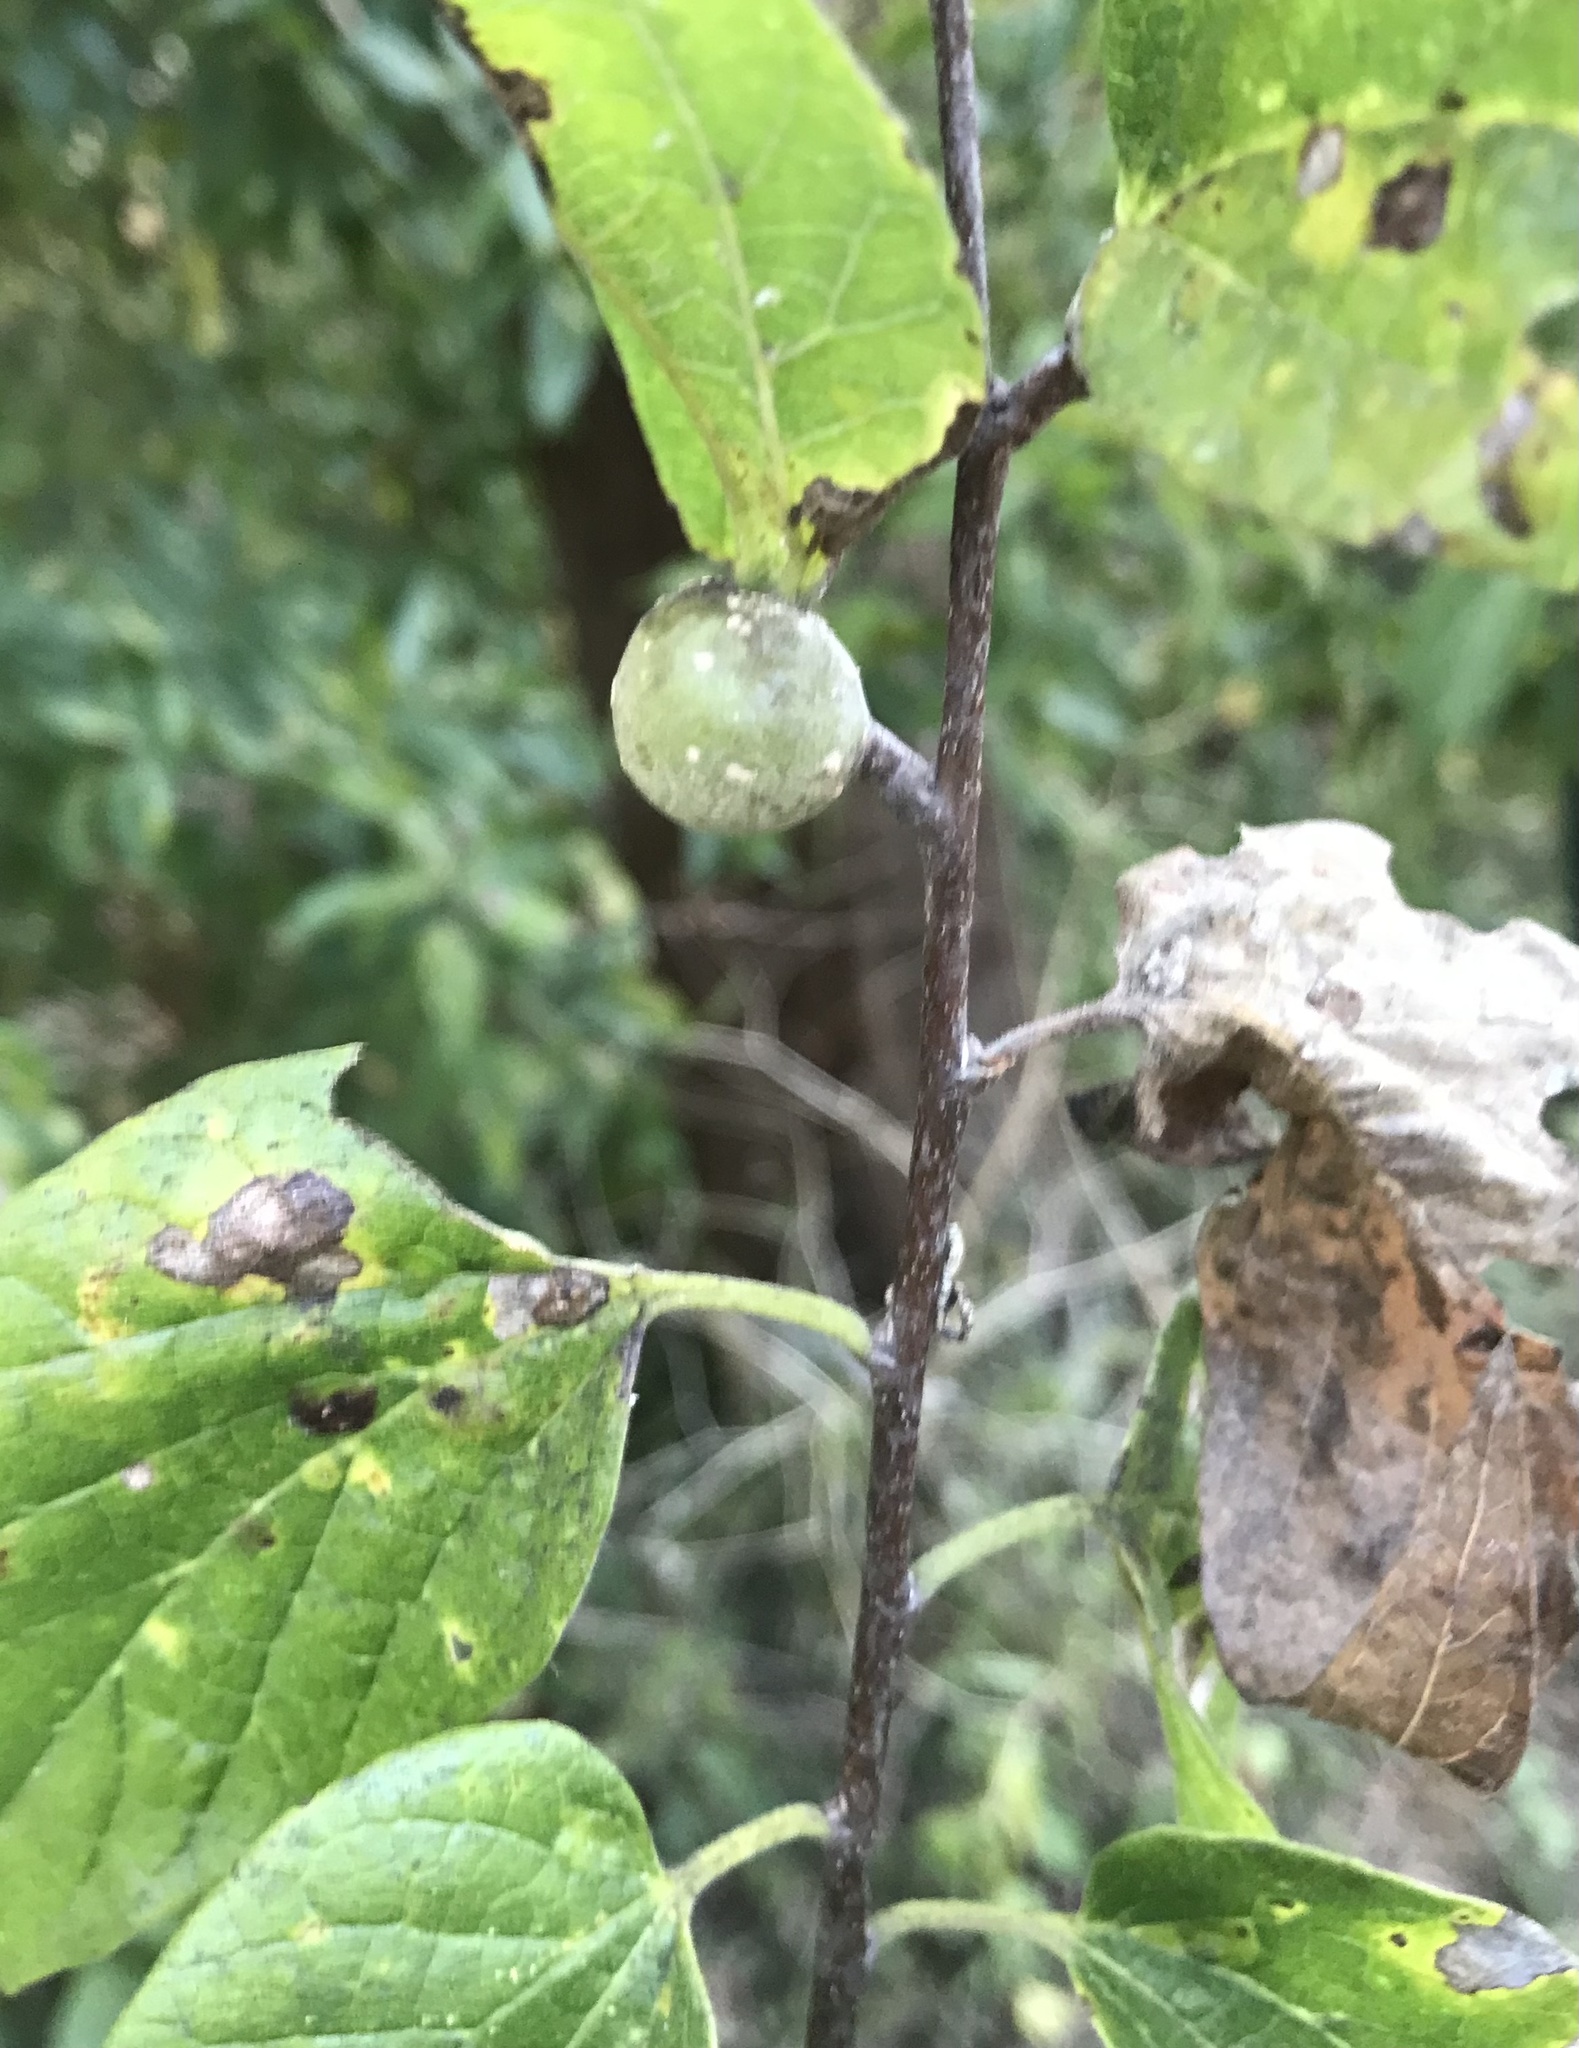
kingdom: Animalia
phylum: Arthropoda
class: Insecta
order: Hemiptera
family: Aphalaridae
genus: Pachypsylla
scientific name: Pachypsylla venusta
